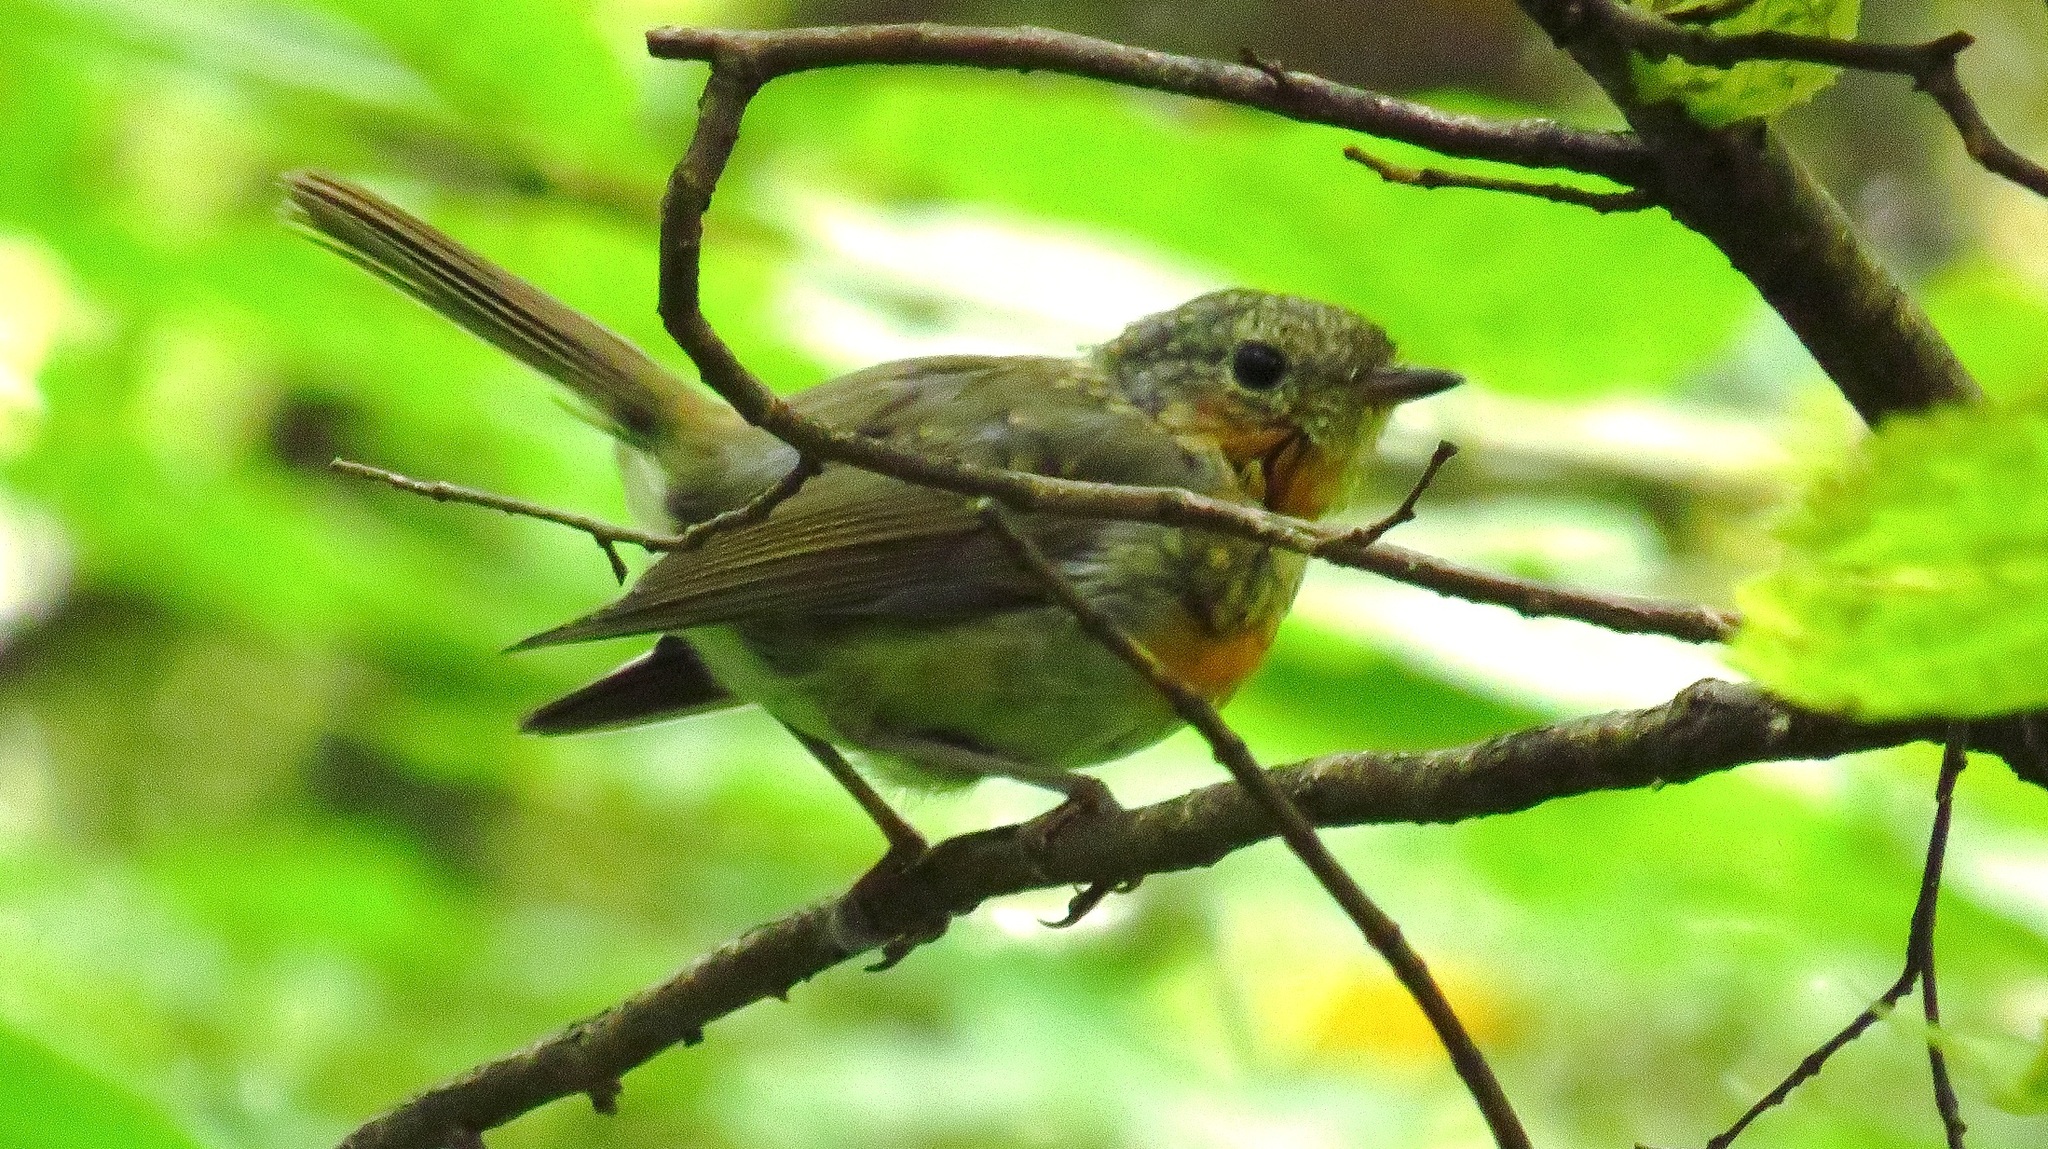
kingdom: Animalia
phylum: Chordata
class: Aves
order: Passeriformes
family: Muscicapidae
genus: Erithacus
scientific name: Erithacus rubecula
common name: European robin
